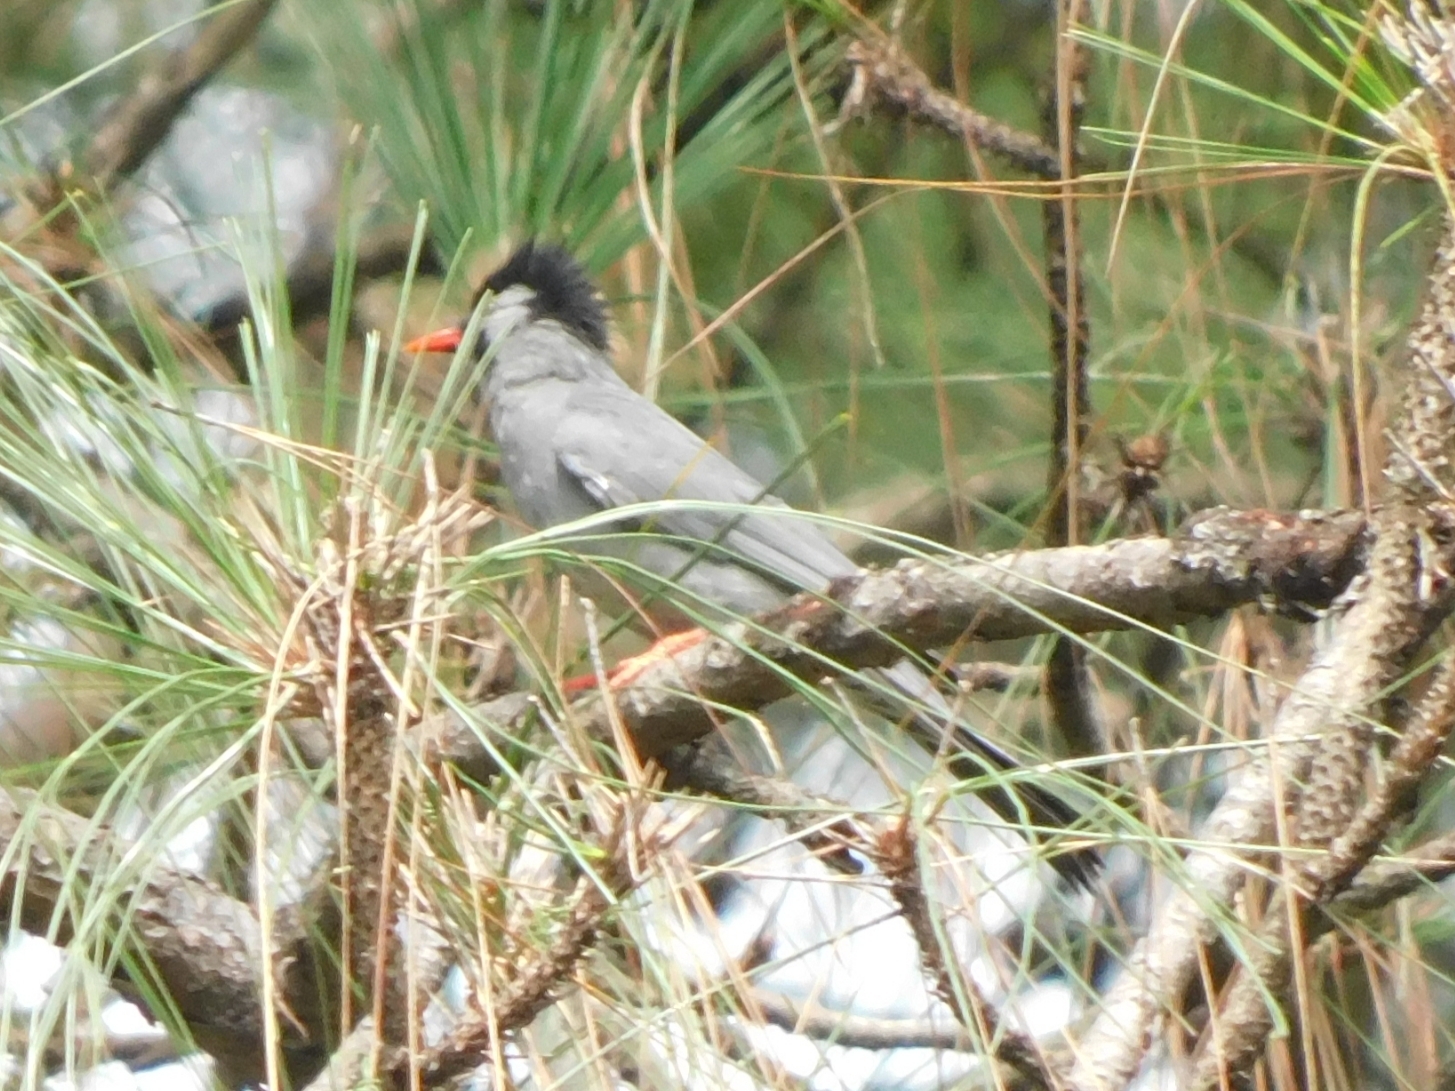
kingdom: Animalia
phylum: Chordata
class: Aves
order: Passeriformes
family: Pycnonotidae
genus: Hypsipetes
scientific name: Hypsipetes leucocephalus
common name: Black bulbul
